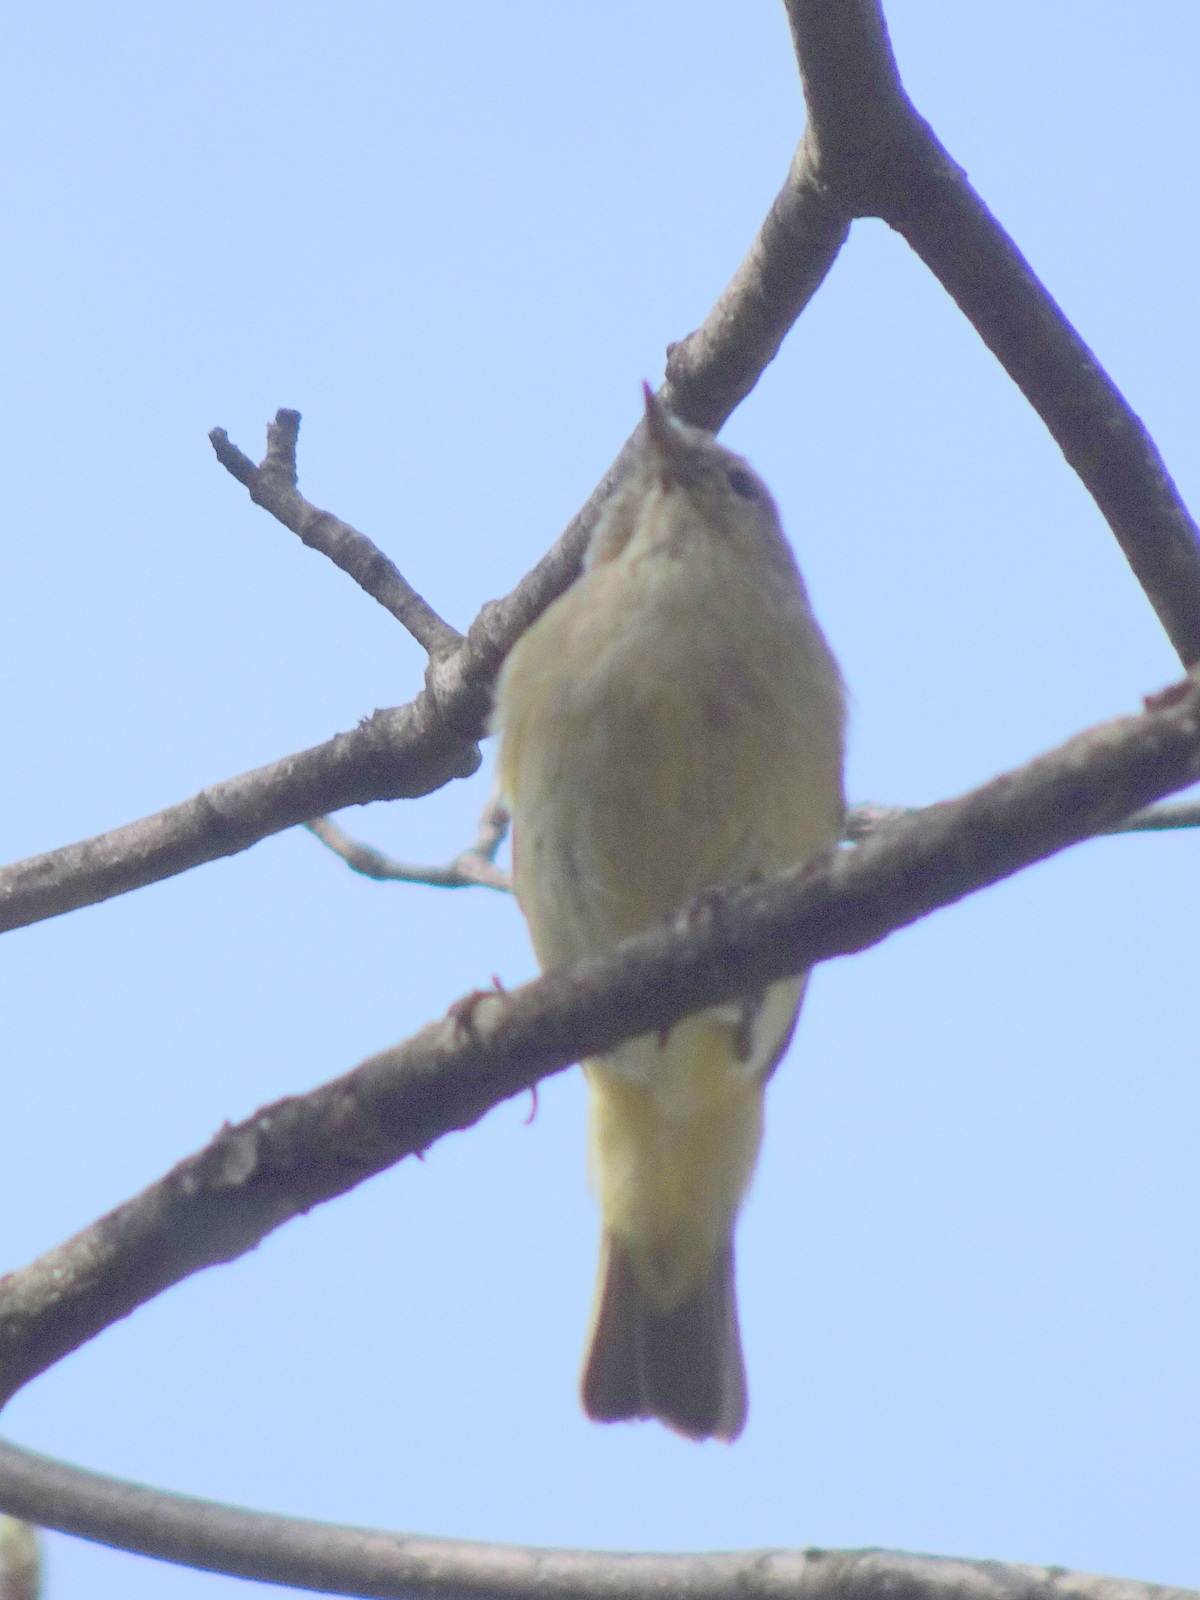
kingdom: Animalia
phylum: Chordata
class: Aves
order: Passeriformes
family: Phylloscopidae
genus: Phylloscopus
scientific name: Phylloscopus collybita
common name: Common chiffchaff
